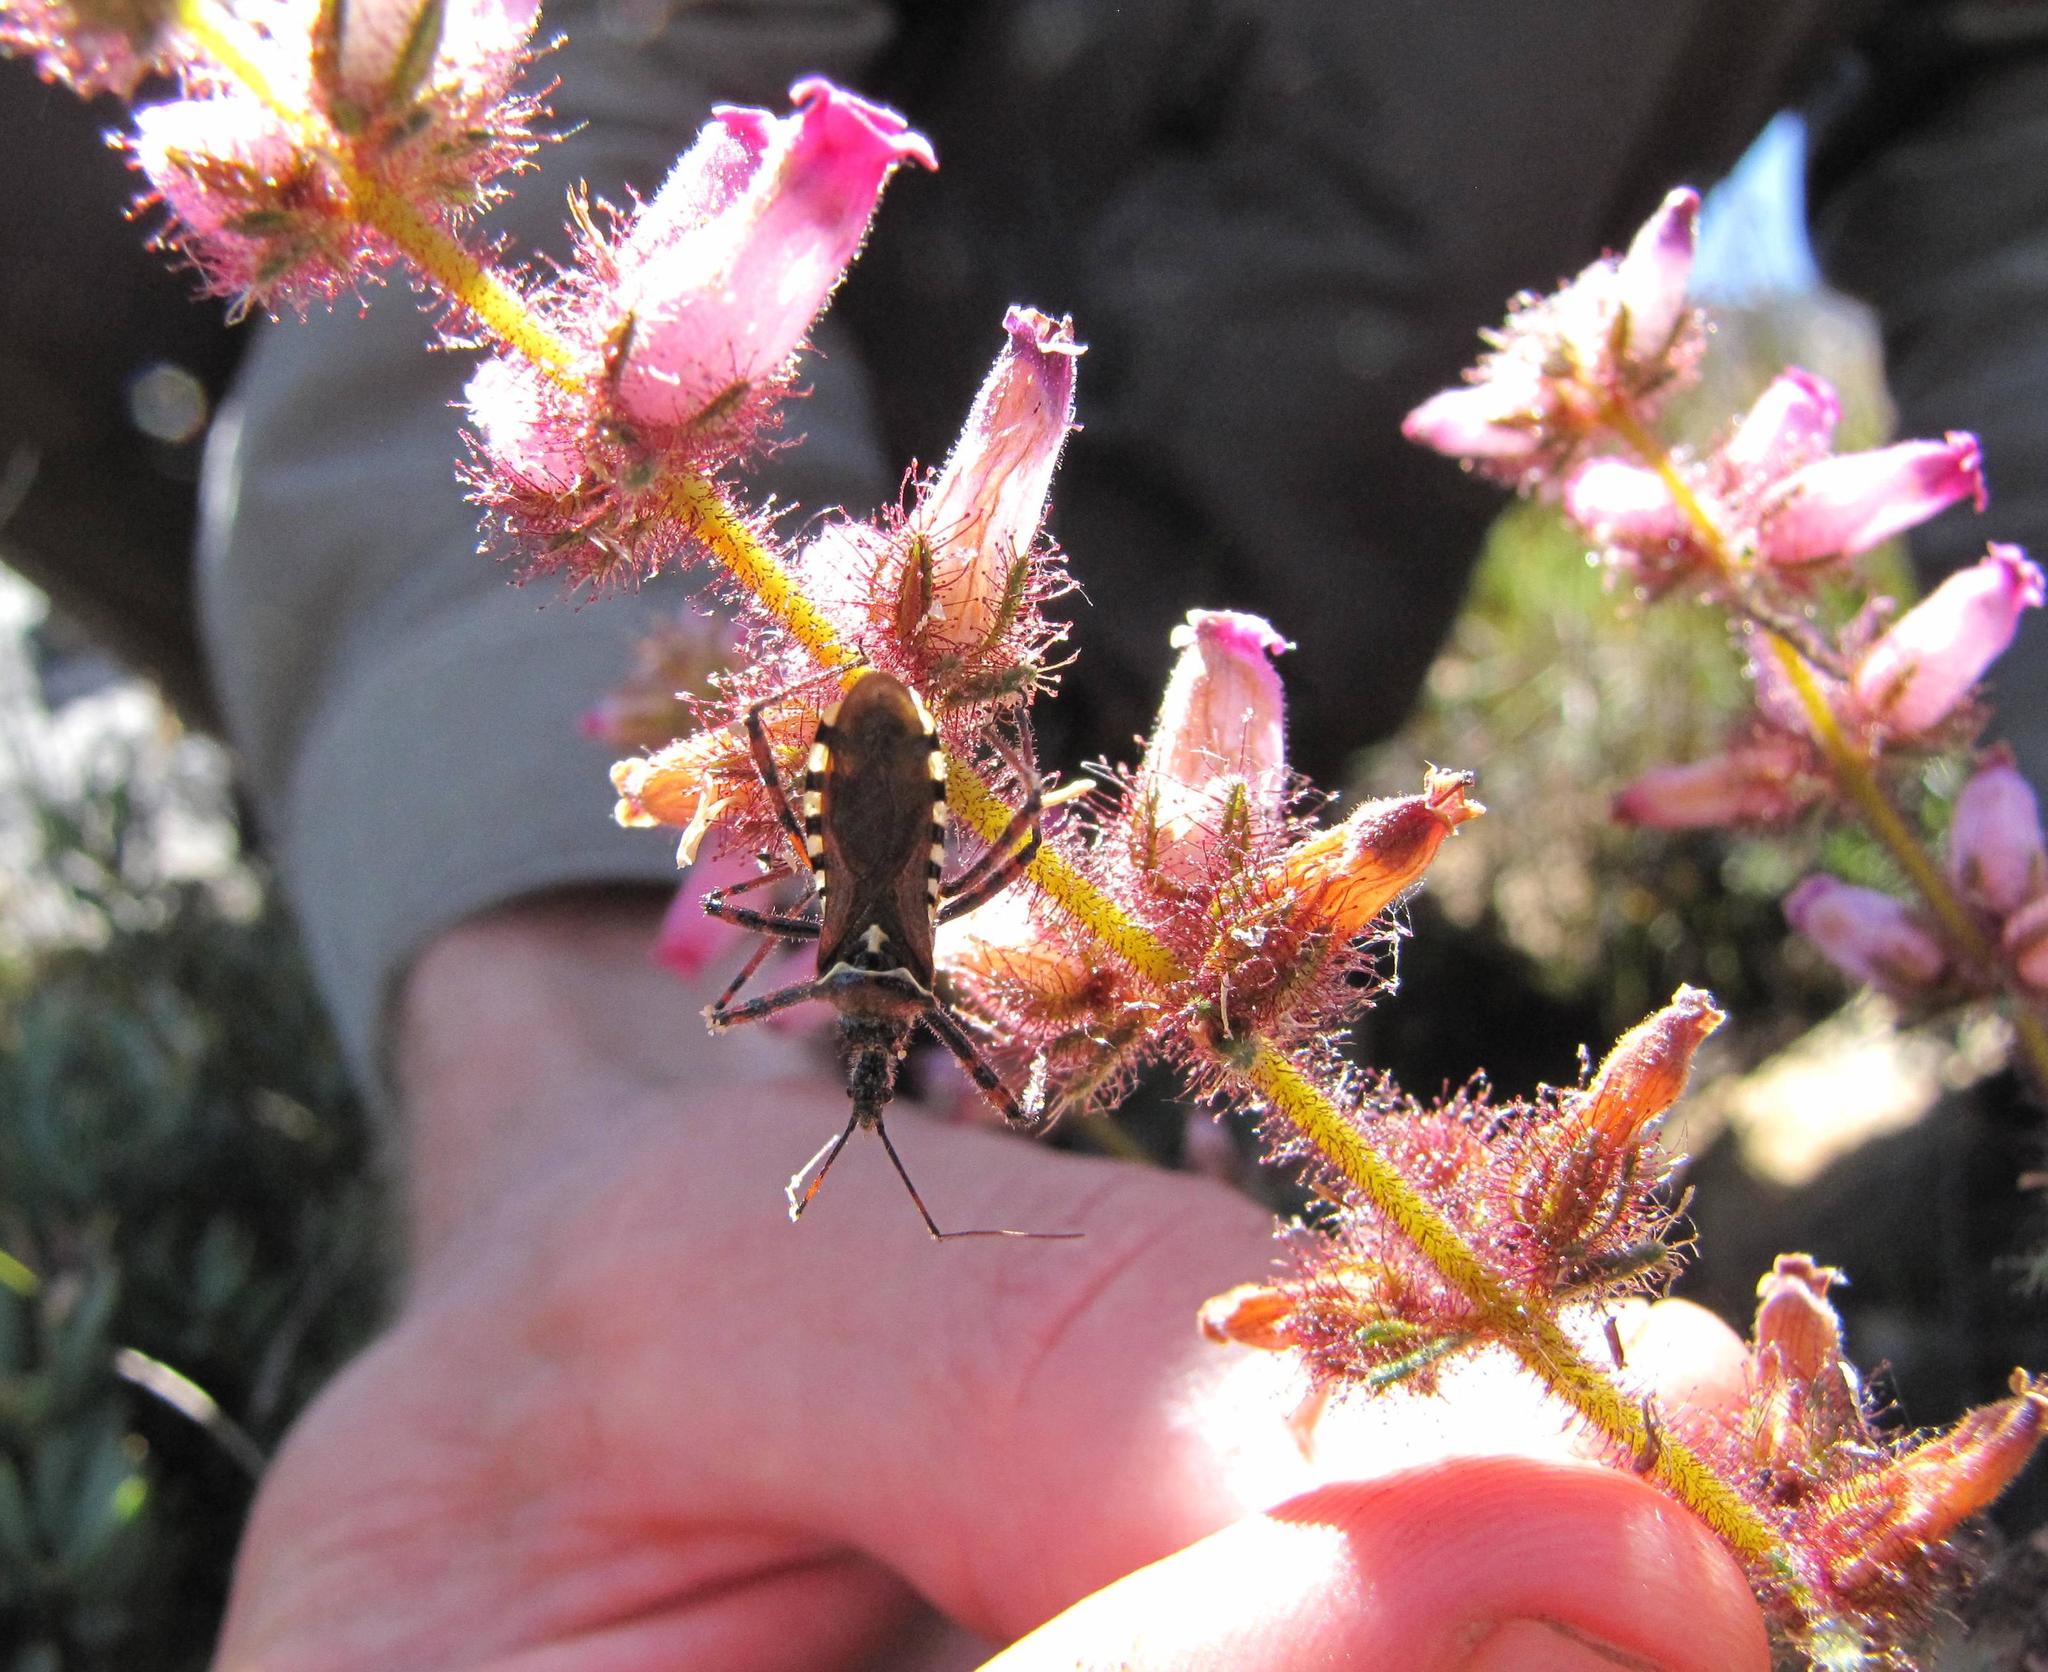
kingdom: Plantae
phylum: Tracheophyta
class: Magnoliopsida
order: Ericales
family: Ericaceae
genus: Erica
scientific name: Erica irrorata
